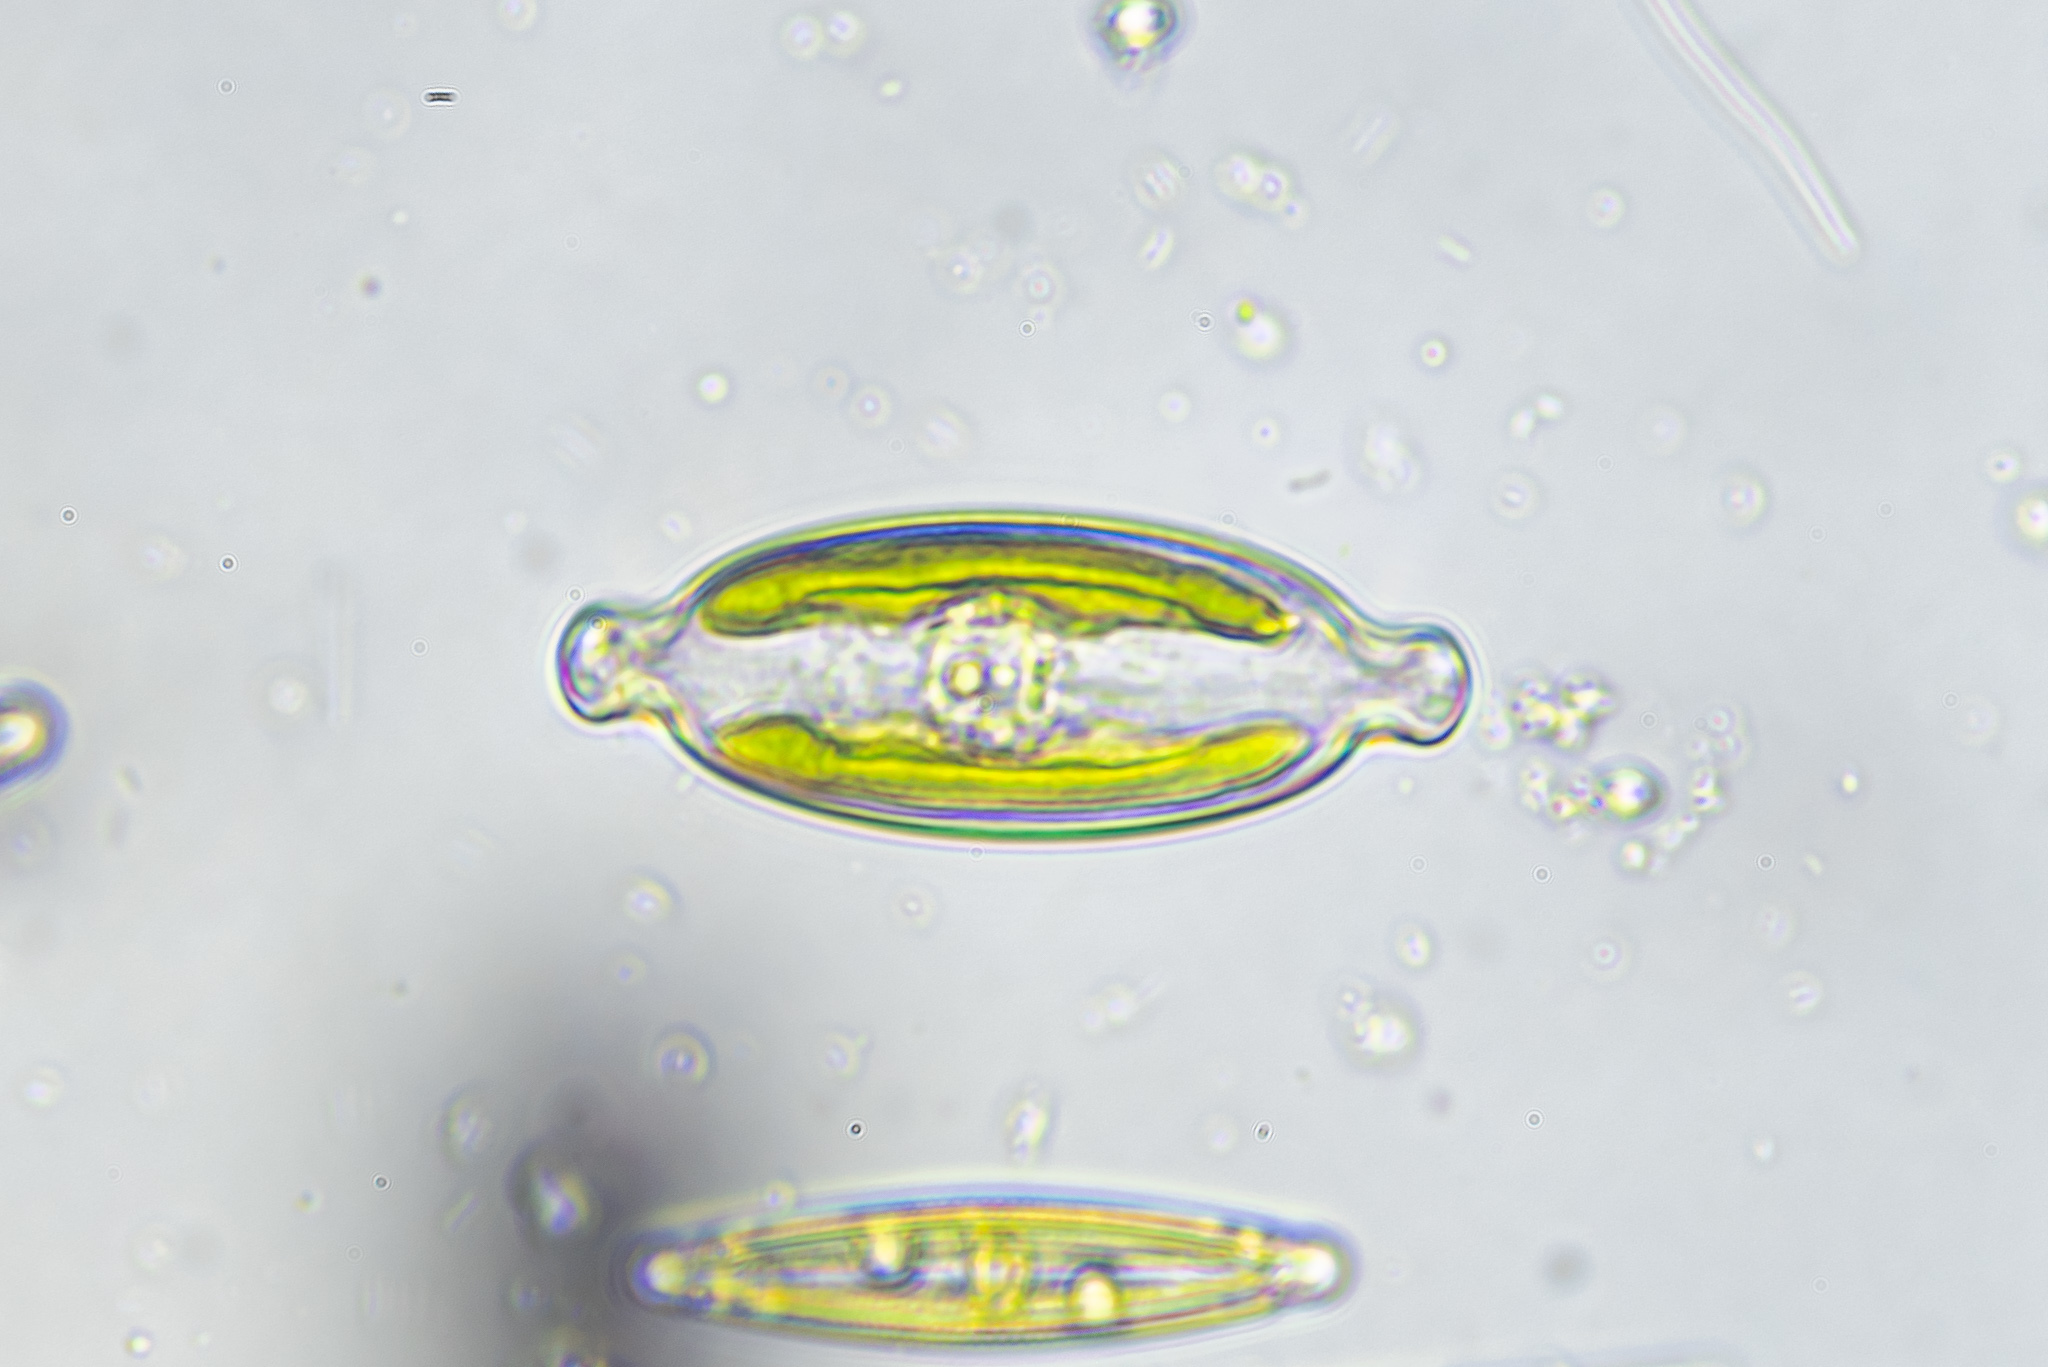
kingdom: Chromista
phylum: Ochrophyta
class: Bacillariophyceae
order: Naviculales
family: Naviculaceae
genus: Caloneis
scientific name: Caloneis amphisbaena
